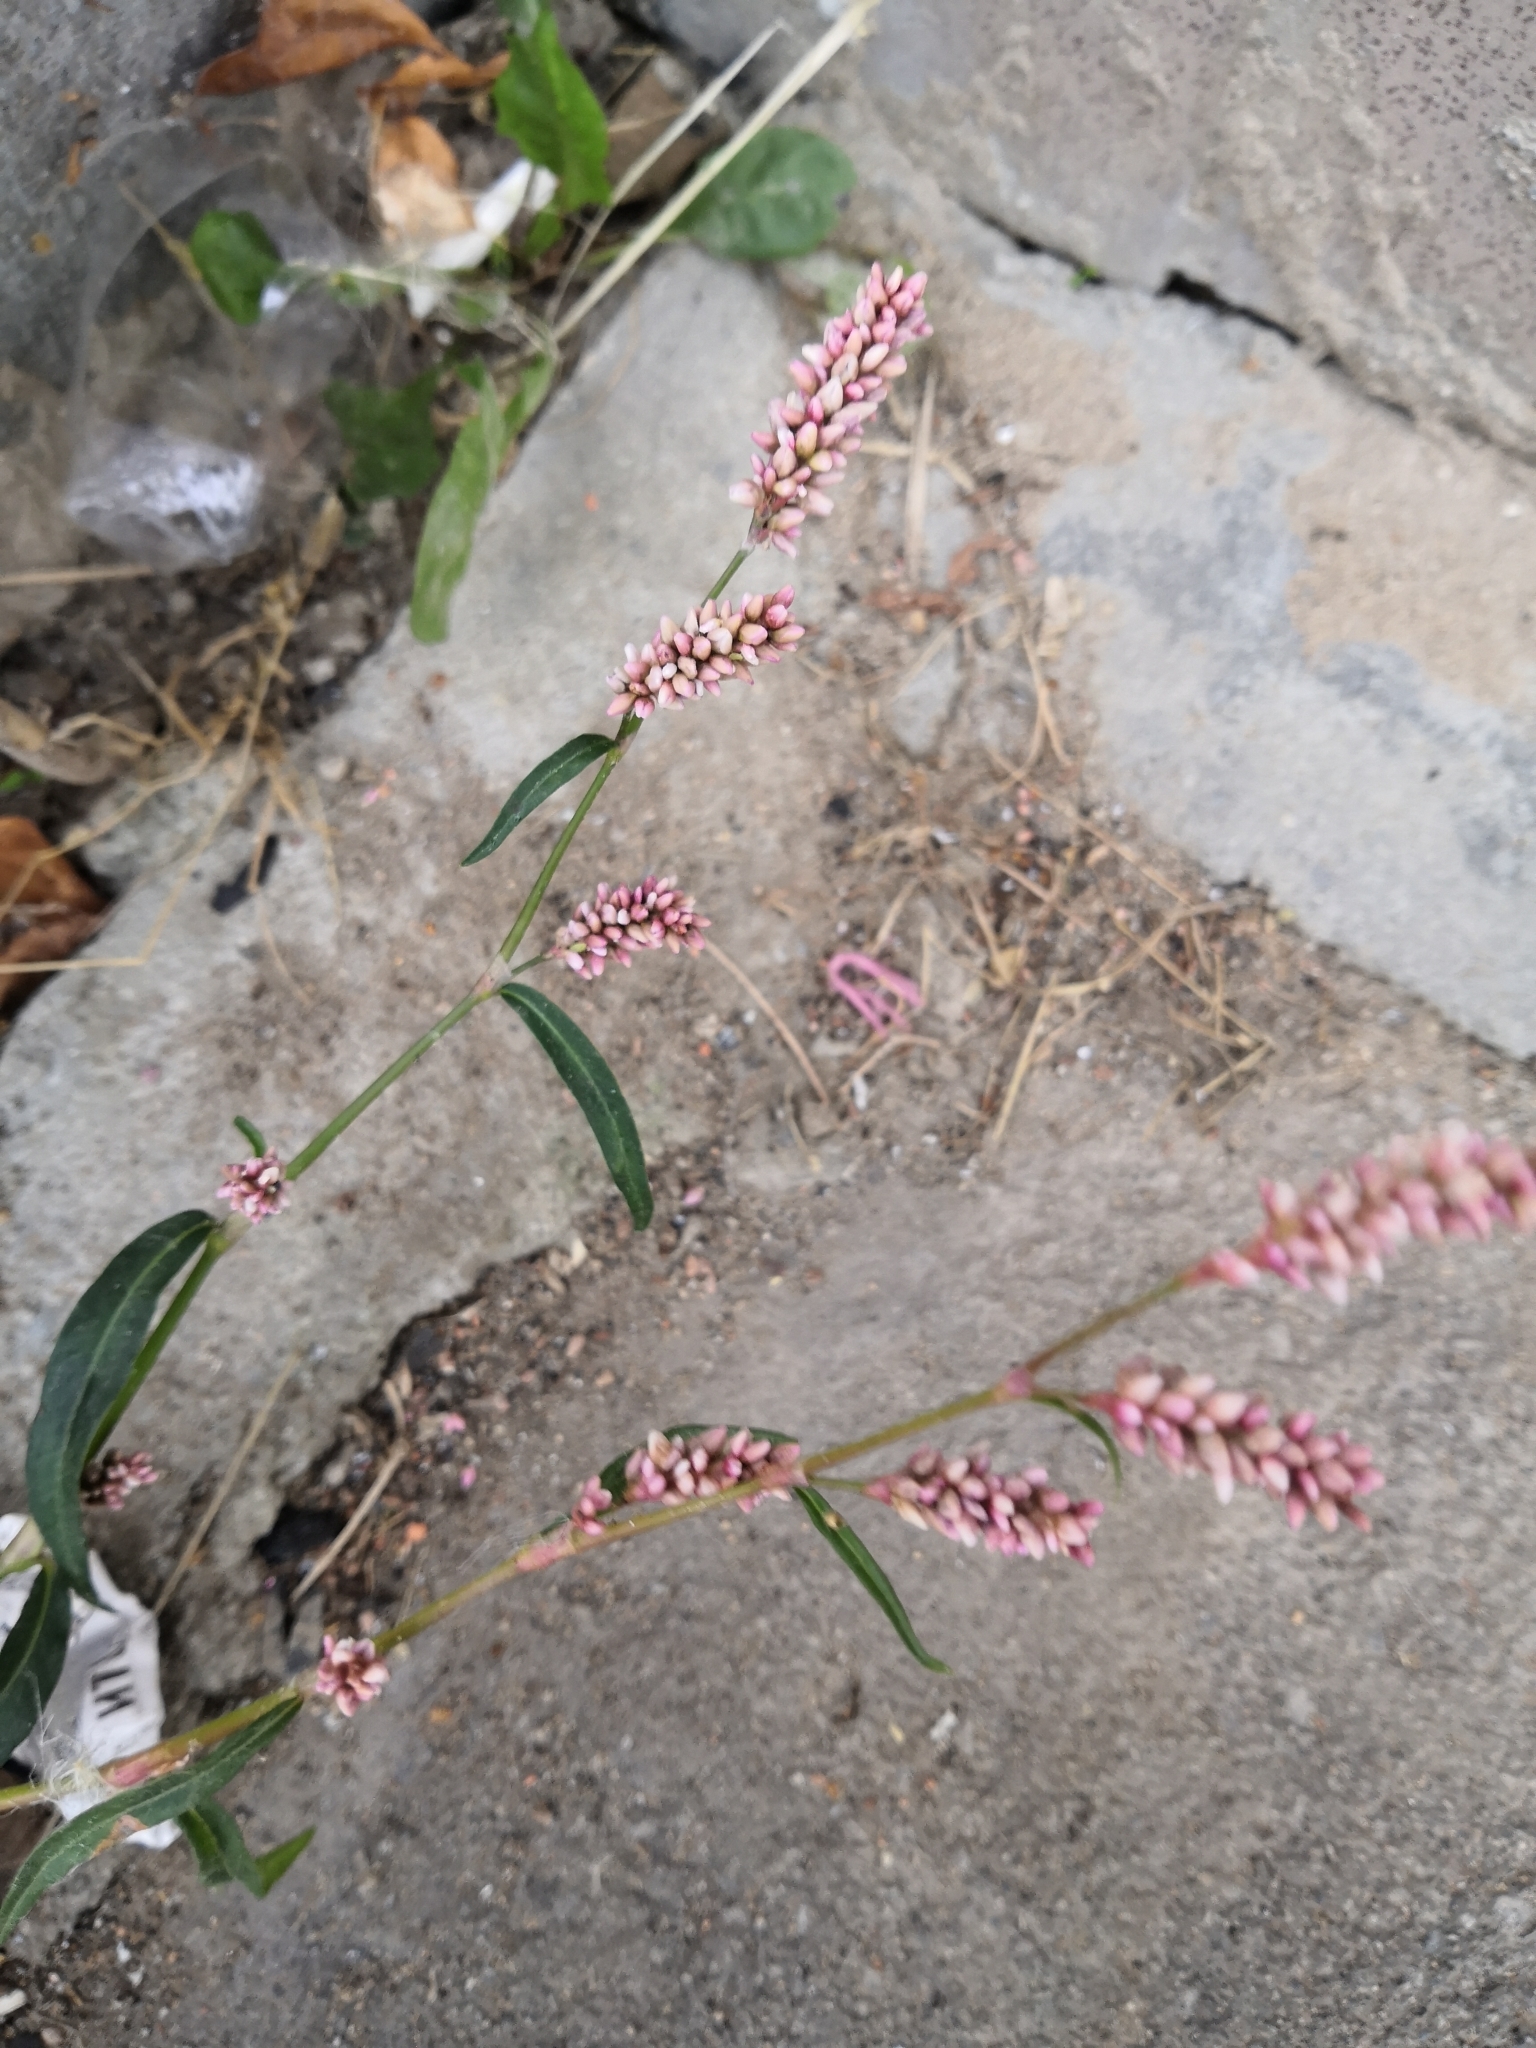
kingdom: Plantae
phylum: Tracheophyta
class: Magnoliopsida
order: Caryophyllales
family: Polygonaceae
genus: Persicaria
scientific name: Persicaria maculosa
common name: Redshank
